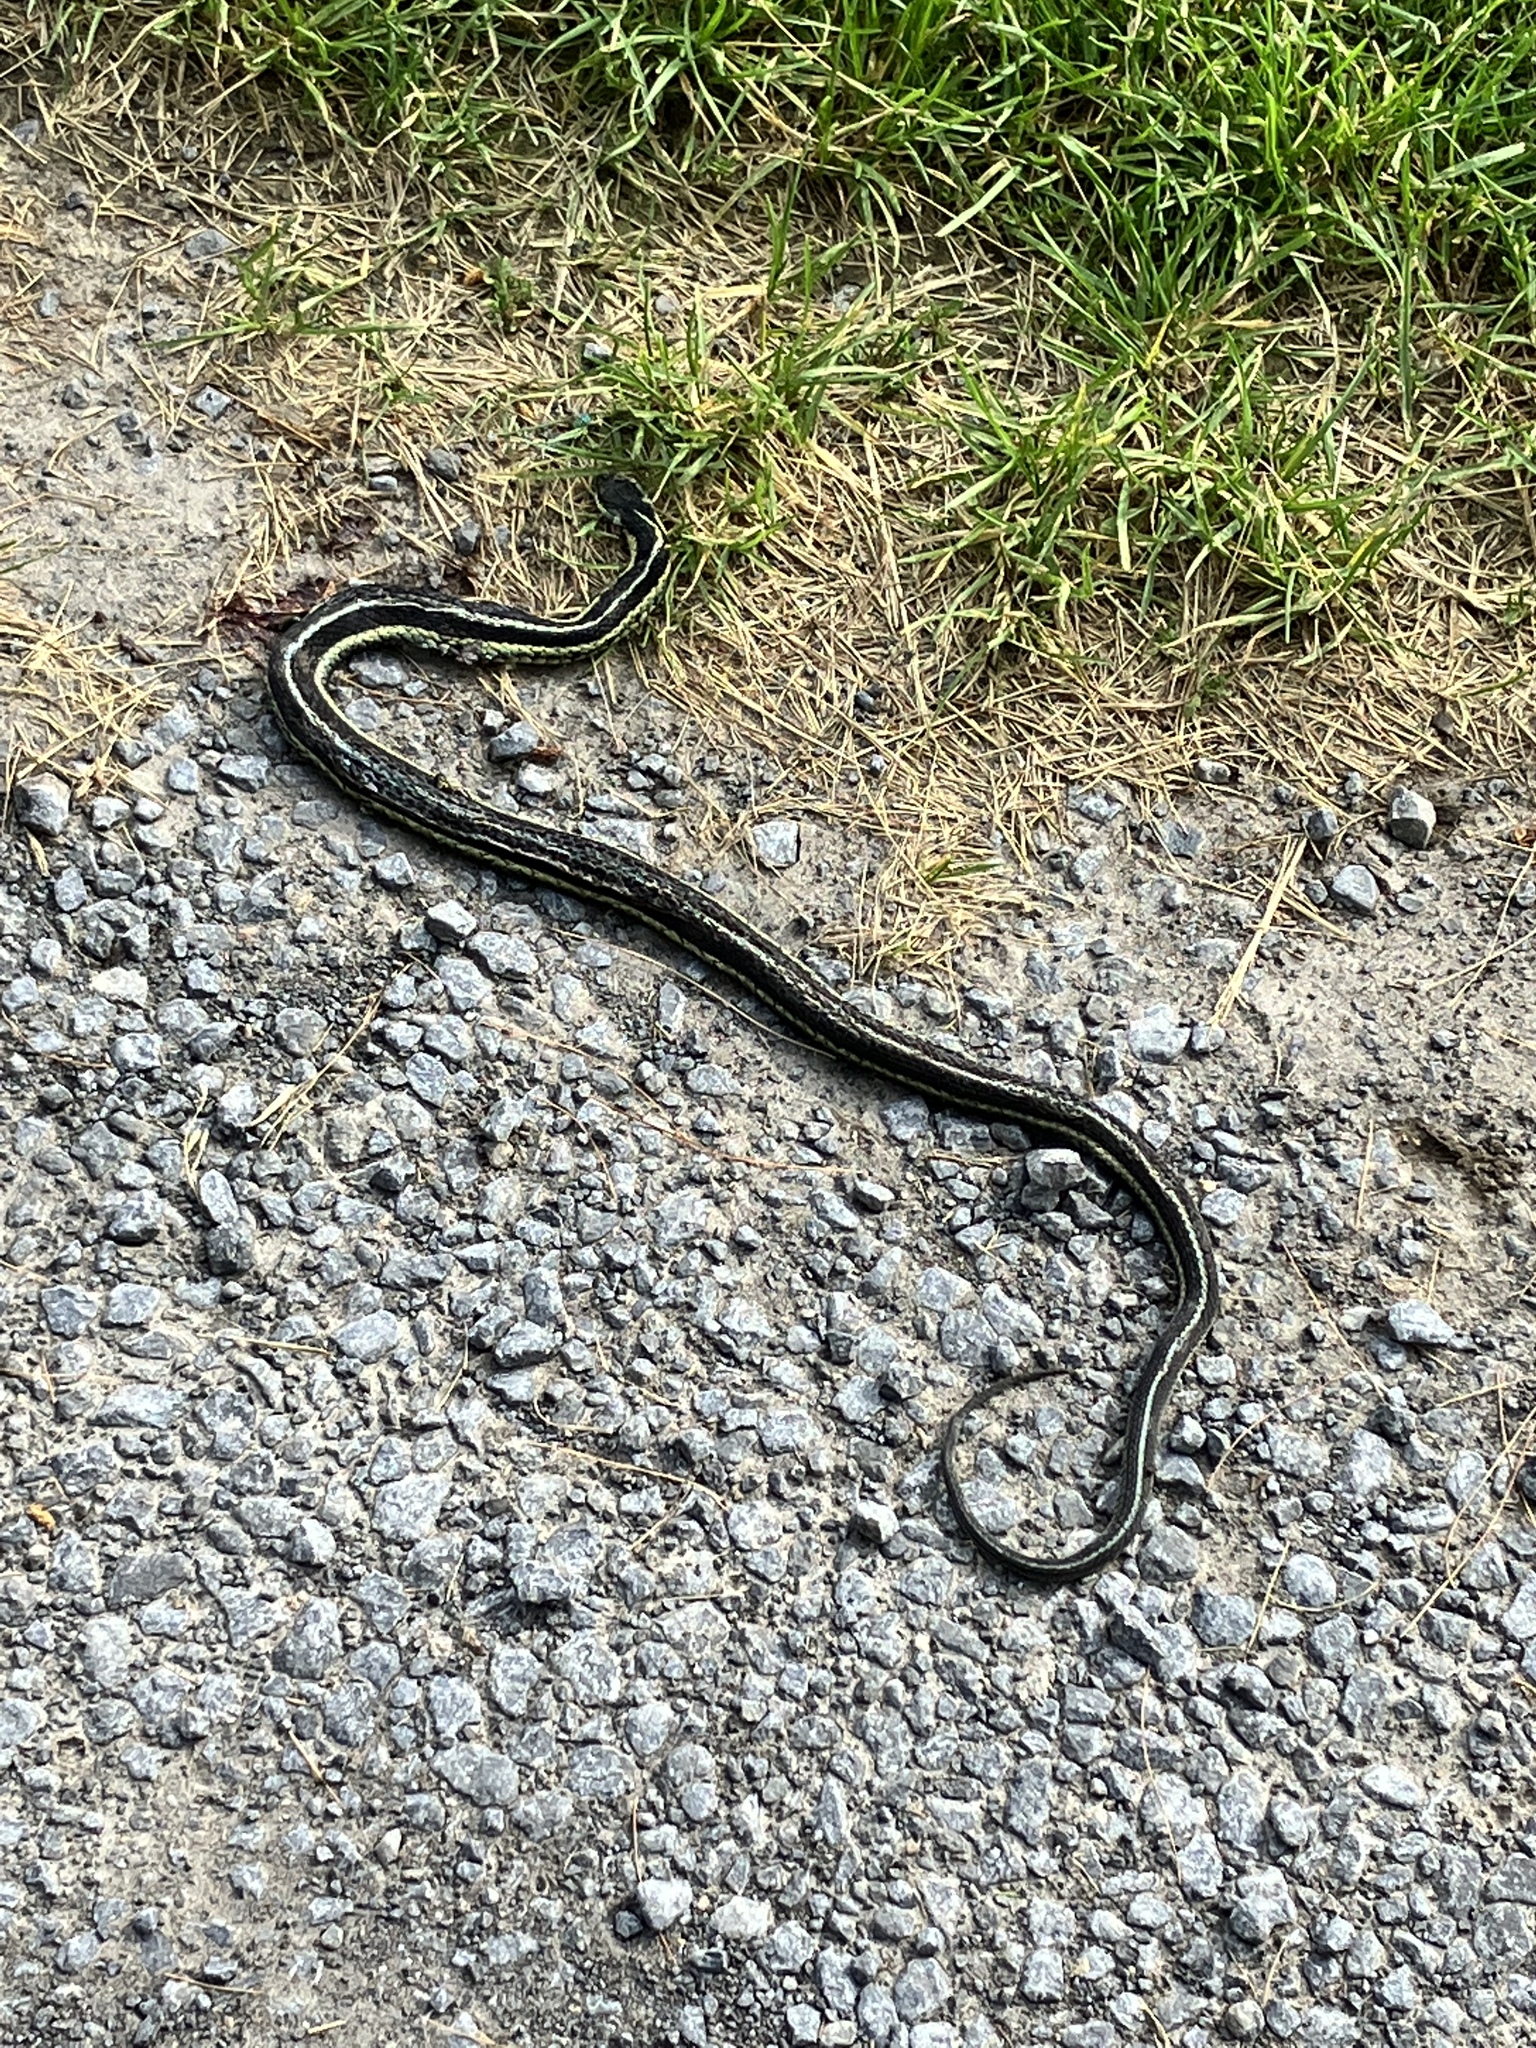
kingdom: Animalia
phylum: Chordata
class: Squamata
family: Colubridae
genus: Thamnophis
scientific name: Thamnophis sirtalis
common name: Common garter snake
